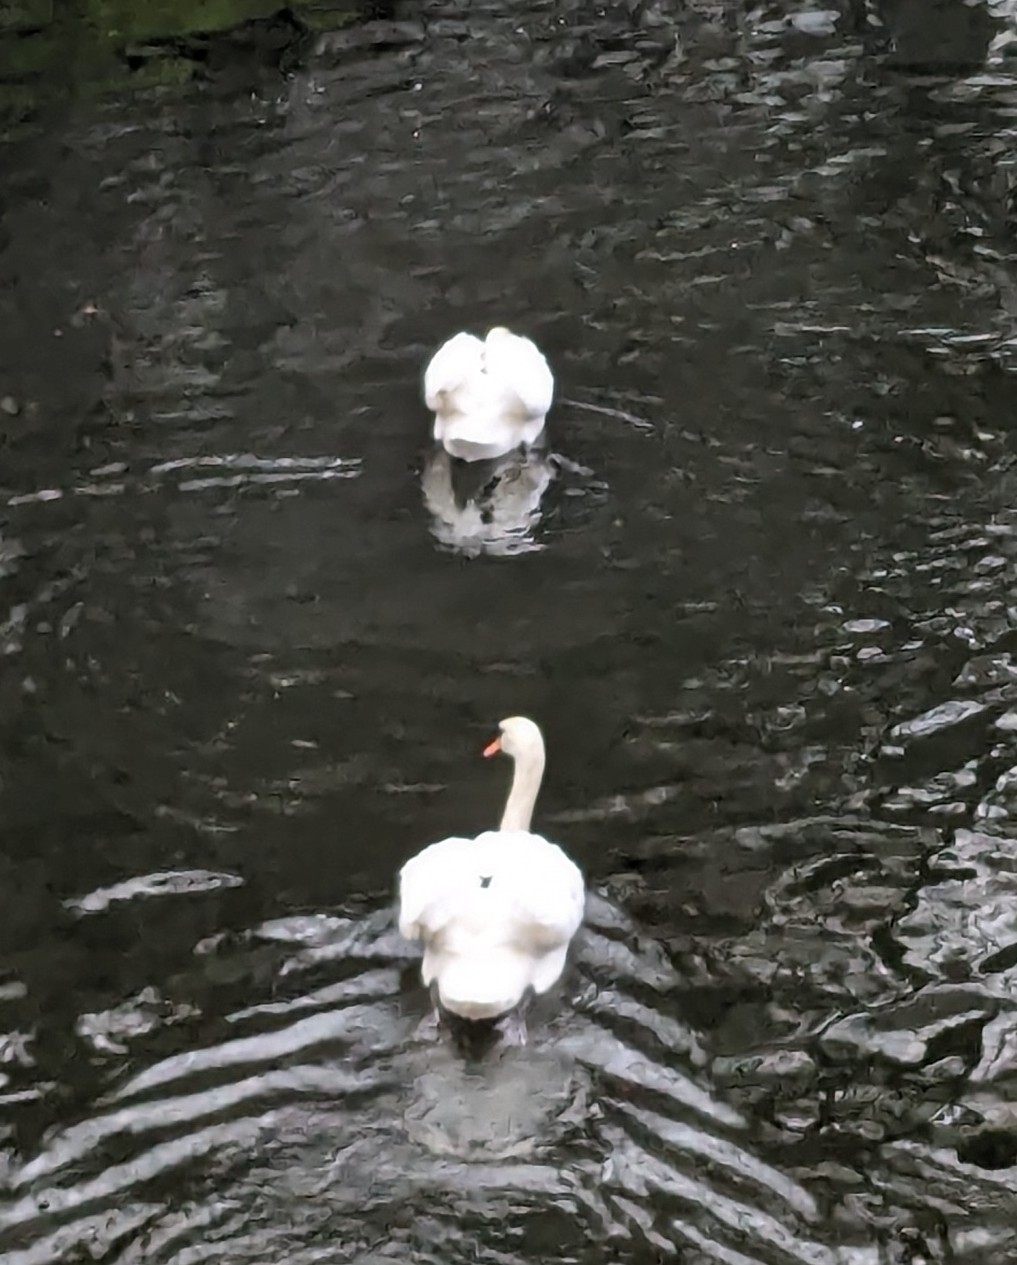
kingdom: Animalia
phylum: Chordata
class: Aves
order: Anseriformes
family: Anatidae
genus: Cygnus
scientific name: Cygnus olor
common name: Mute swan
